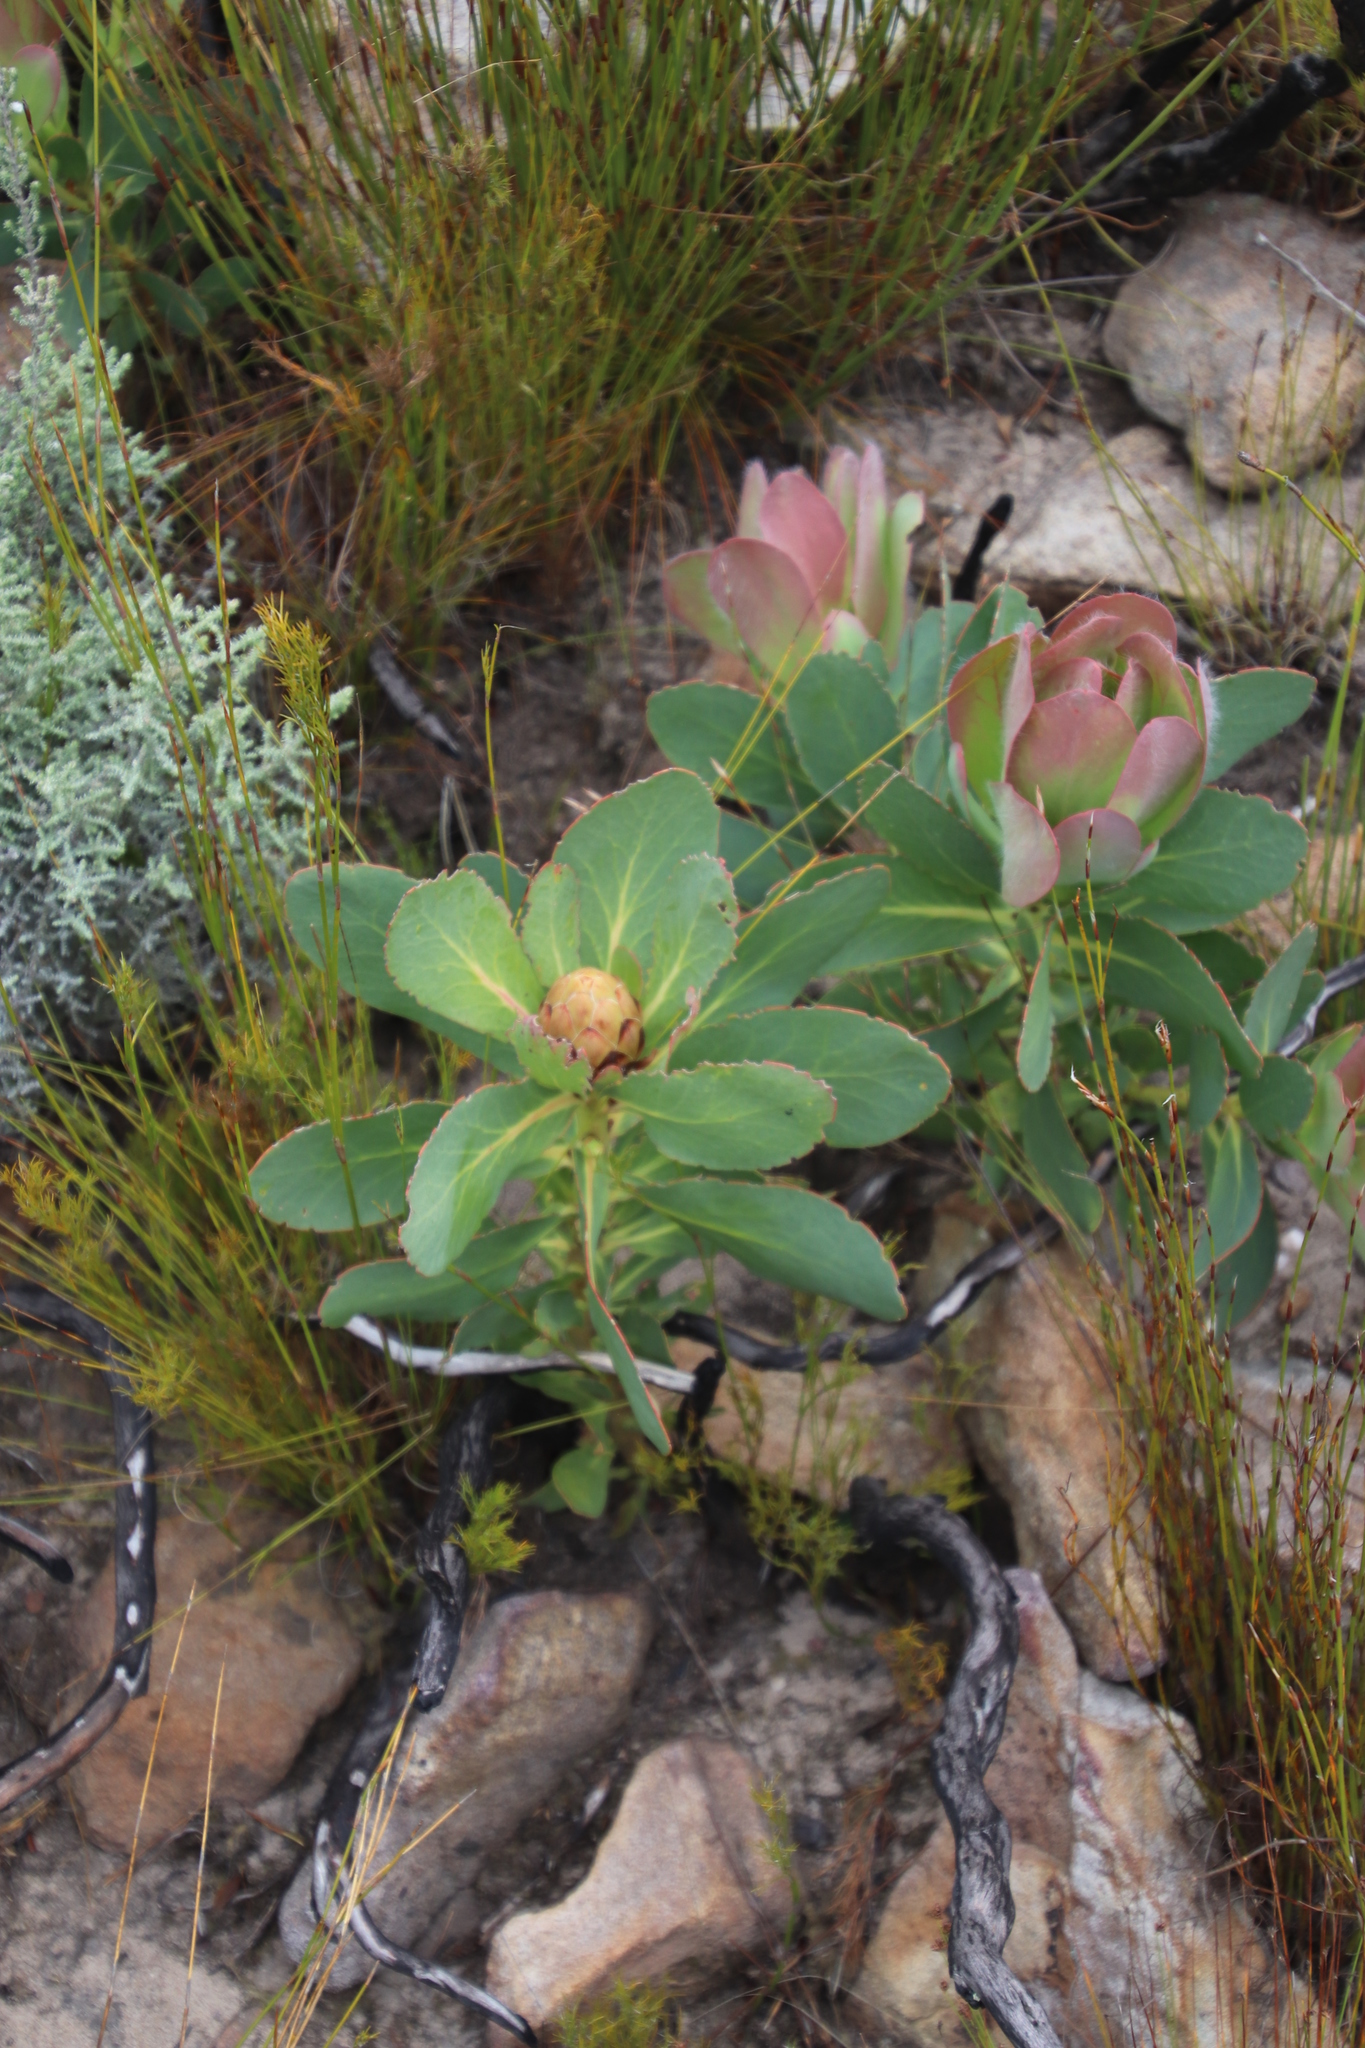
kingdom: Plantae
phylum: Tracheophyta
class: Magnoliopsida
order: Proteales
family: Proteaceae
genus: Protea
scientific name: Protea grandiceps
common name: Red sugarbush
